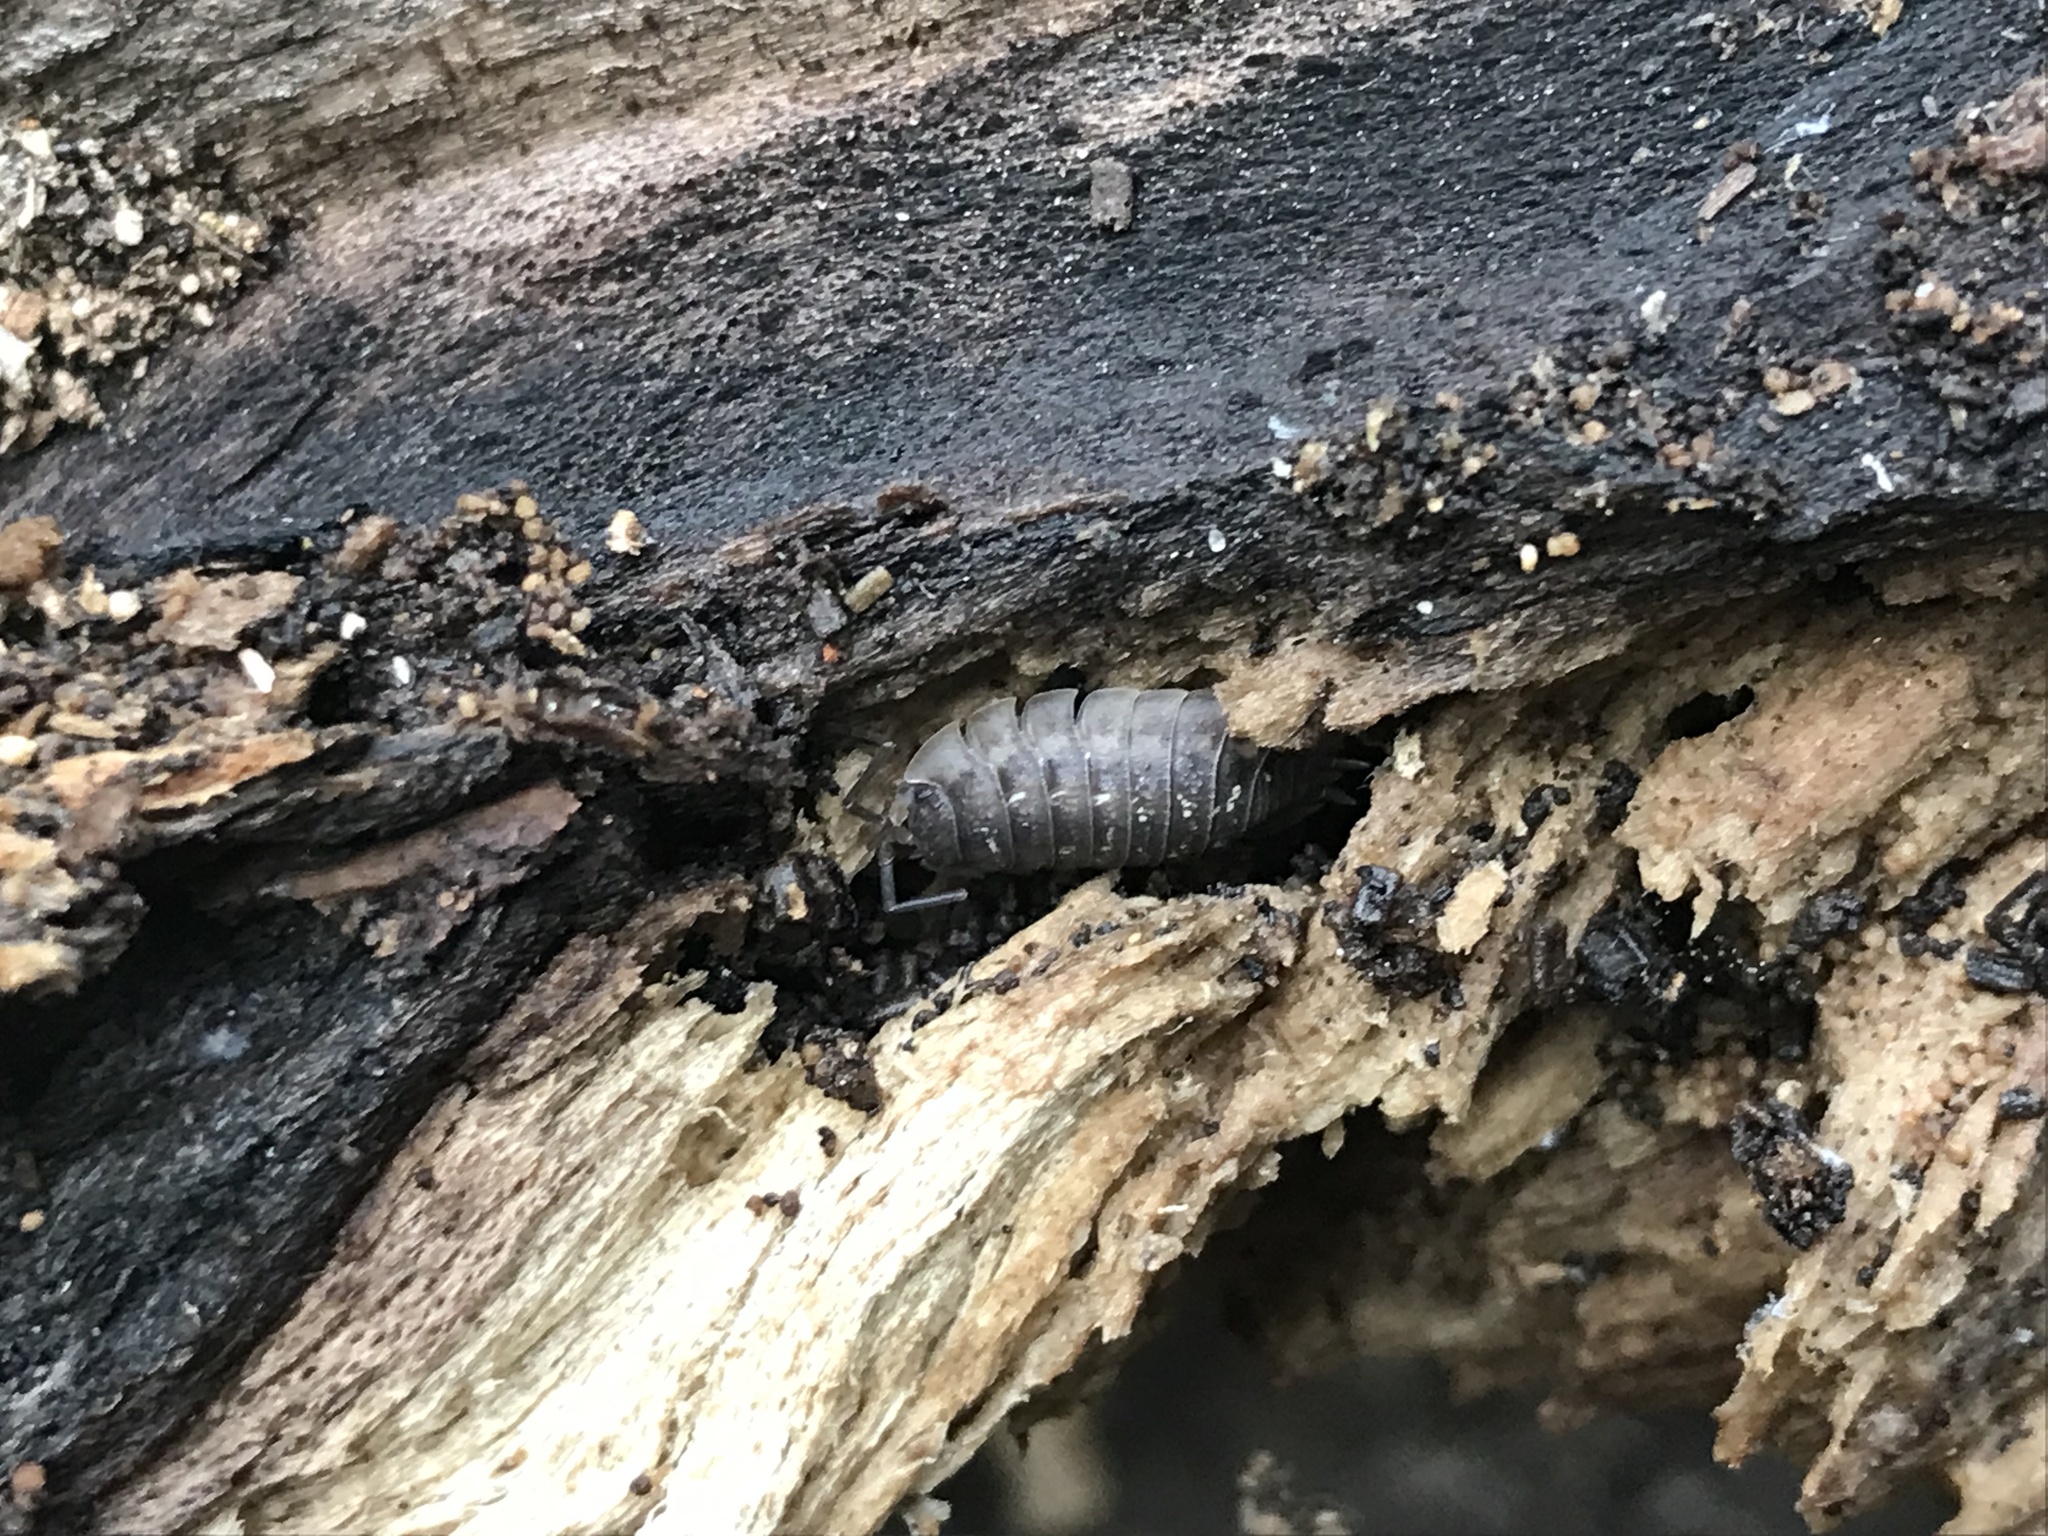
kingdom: Animalia
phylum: Arthropoda
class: Malacostraca
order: Isopoda
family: Oniscidae
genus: Oniscus
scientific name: Oniscus asellus
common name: Common shiny woodlouse
